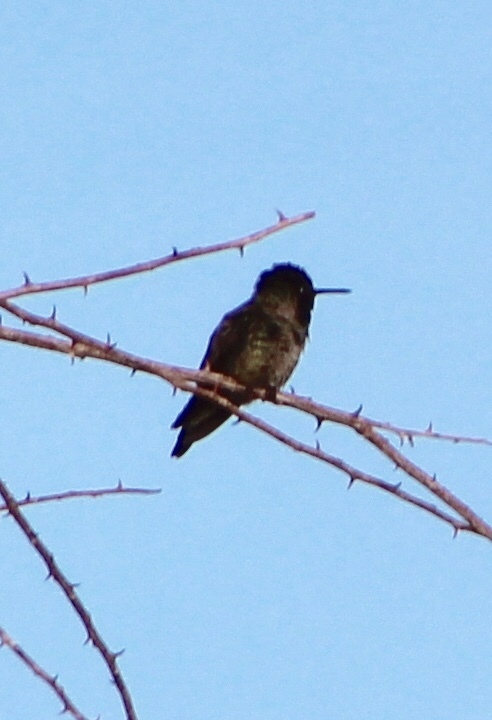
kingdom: Animalia
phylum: Chordata
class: Aves
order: Apodiformes
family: Trochilidae
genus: Calypte
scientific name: Calypte anna
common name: Anna's hummingbird
